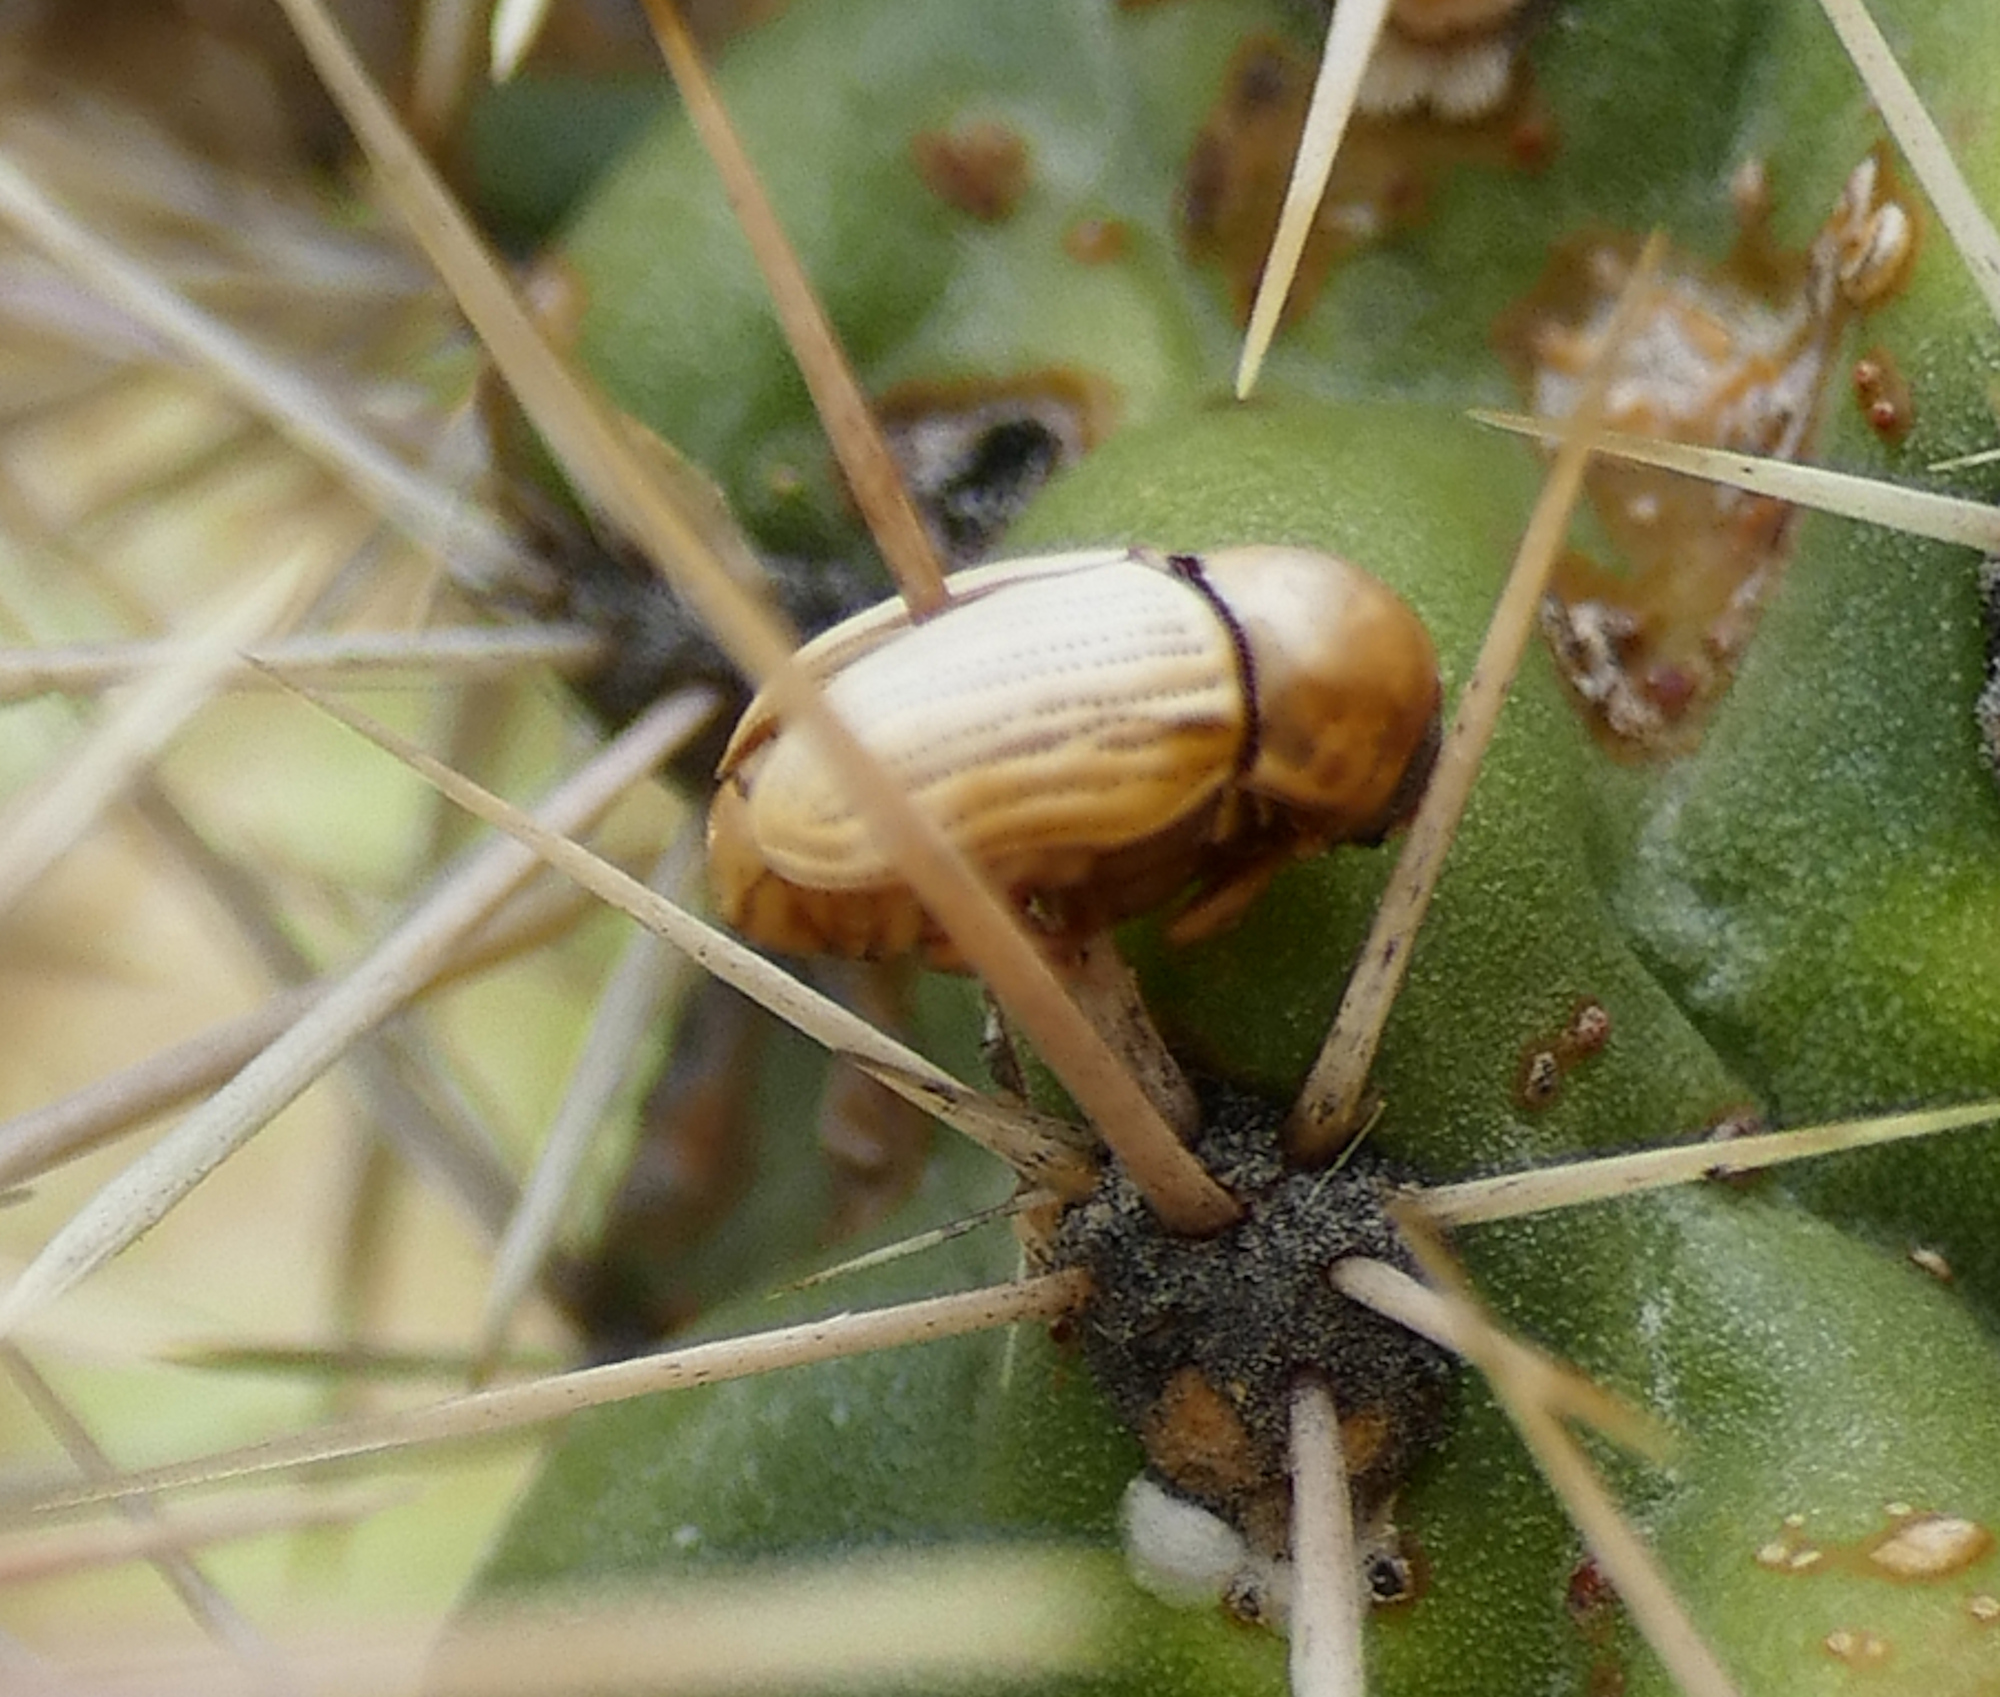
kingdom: Animalia
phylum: Arthropoda
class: Insecta
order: Coleoptera
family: Chrysomelidae
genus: Cryptocephalus
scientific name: Cryptocephalus merus
